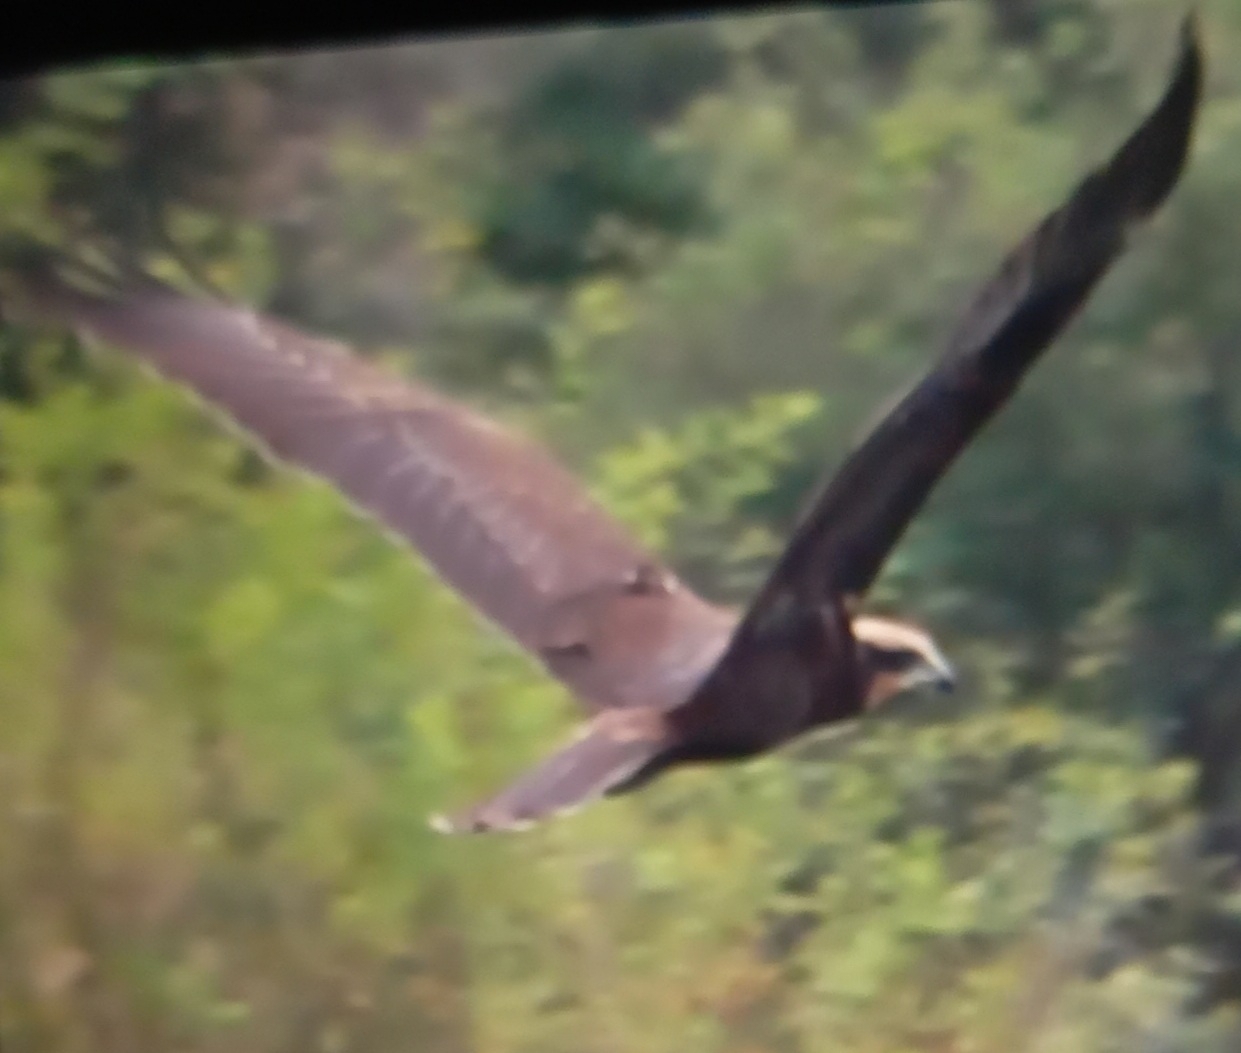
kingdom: Animalia
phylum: Chordata
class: Aves
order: Accipitriformes
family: Accipitridae
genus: Circus
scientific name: Circus aeruginosus
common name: Western marsh harrier
